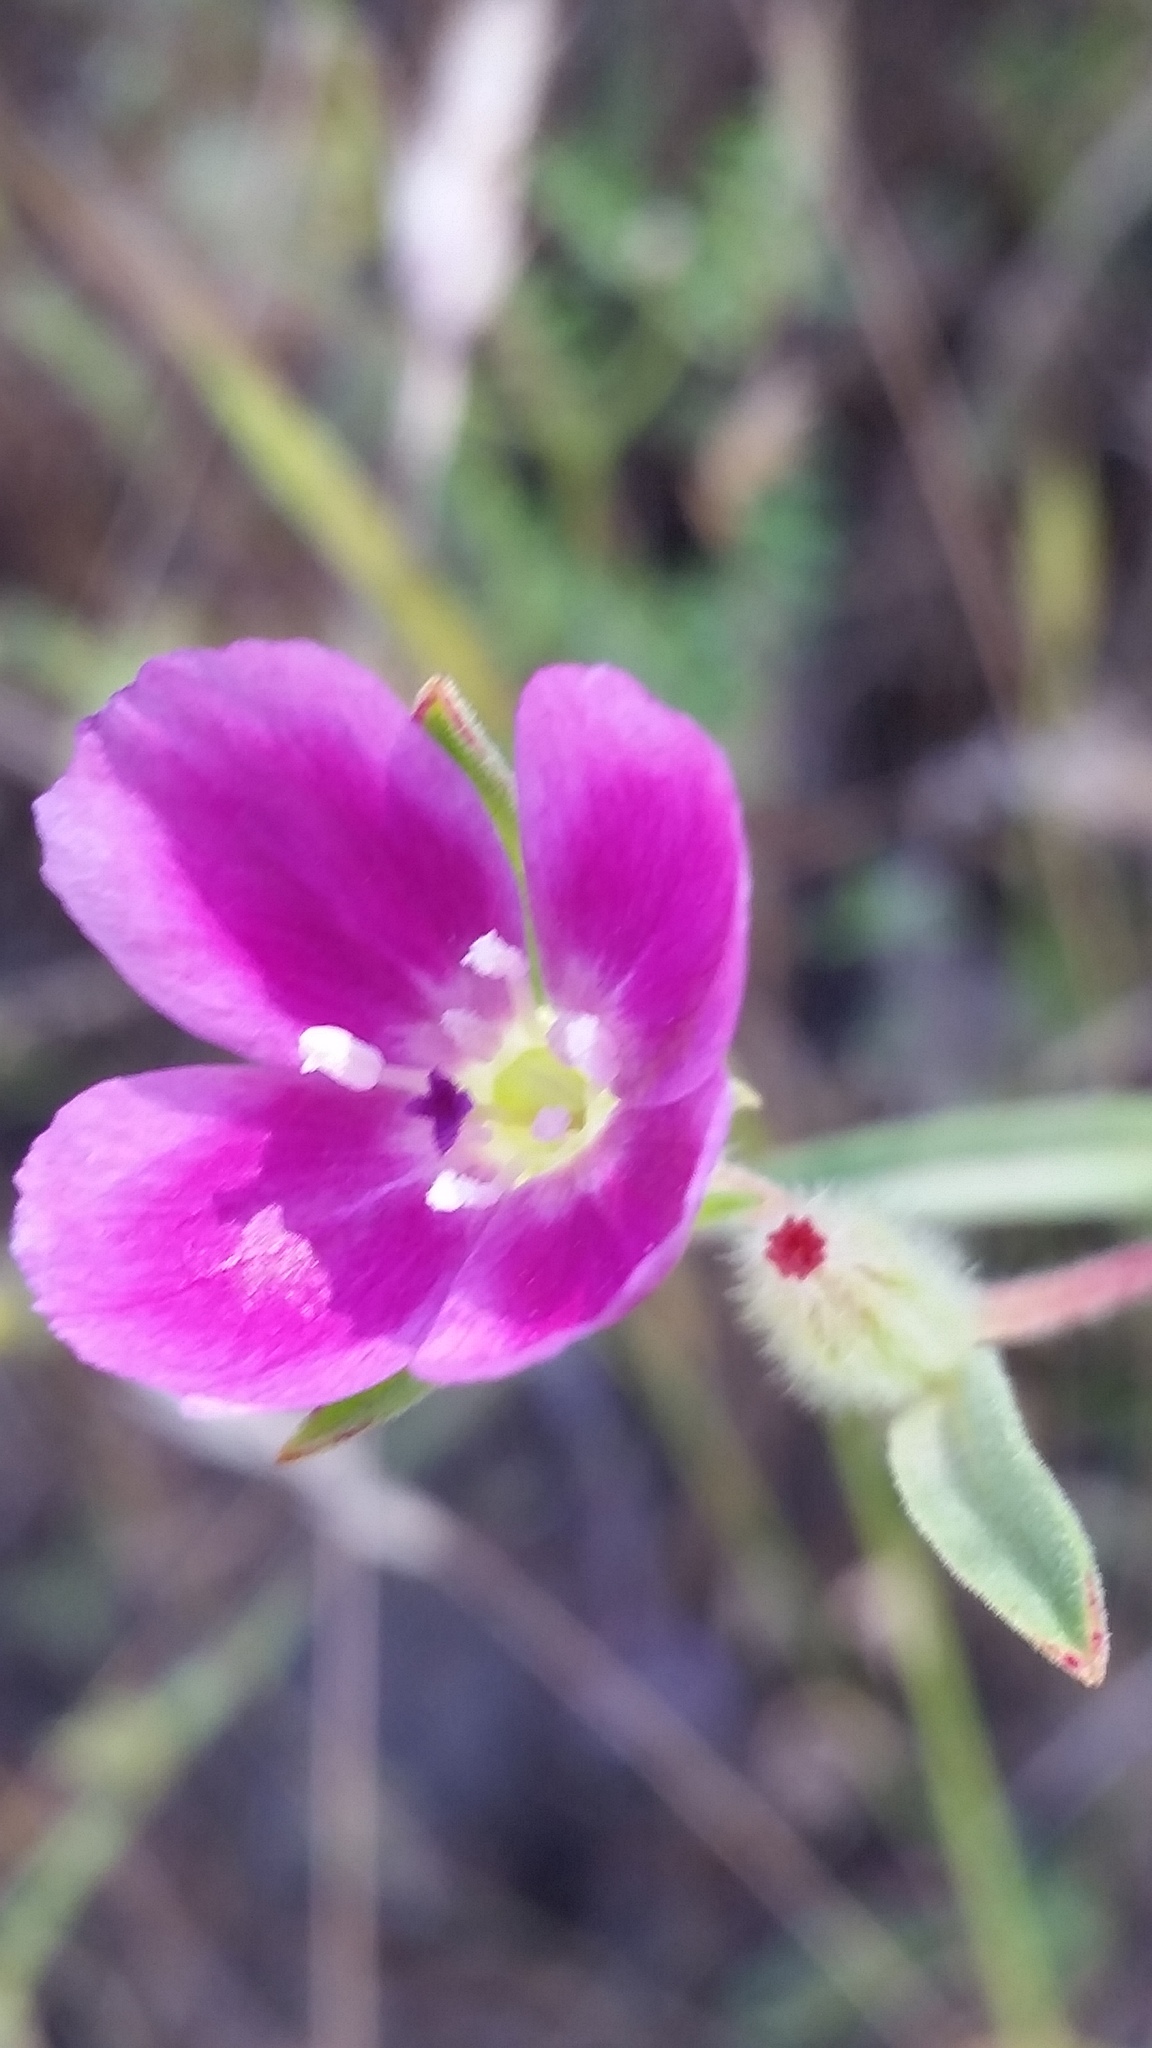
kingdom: Plantae
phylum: Tracheophyta
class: Magnoliopsida
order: Myrtales
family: Onagraceae
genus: Clarkia
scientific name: Clarkia purpurea
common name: Purple clarkia
